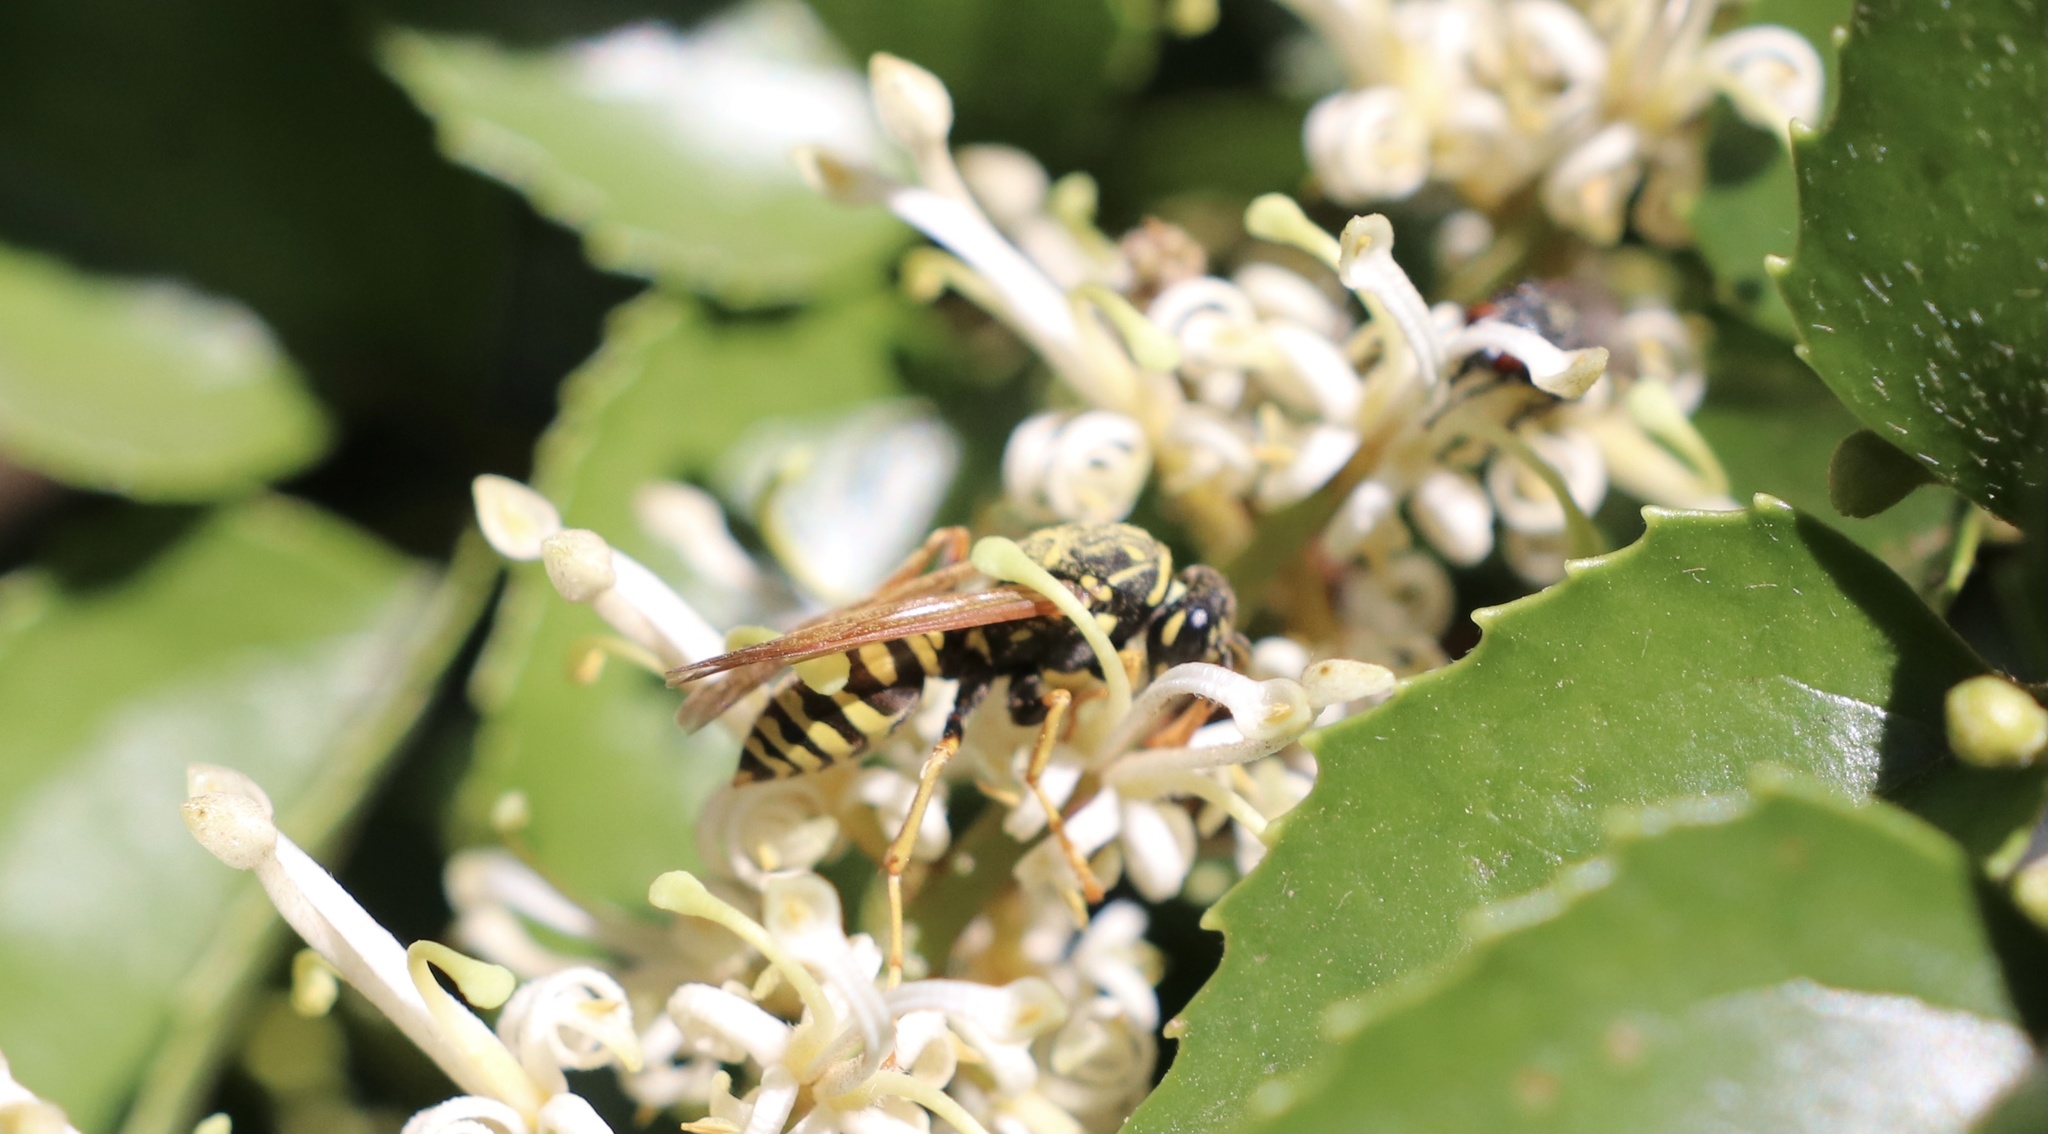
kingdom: Animalia
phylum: Arthropoda
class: Insecta
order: Hymenoptera
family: Eumenidae
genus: Polistes
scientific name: Polistes dominula
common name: Paper wasp
